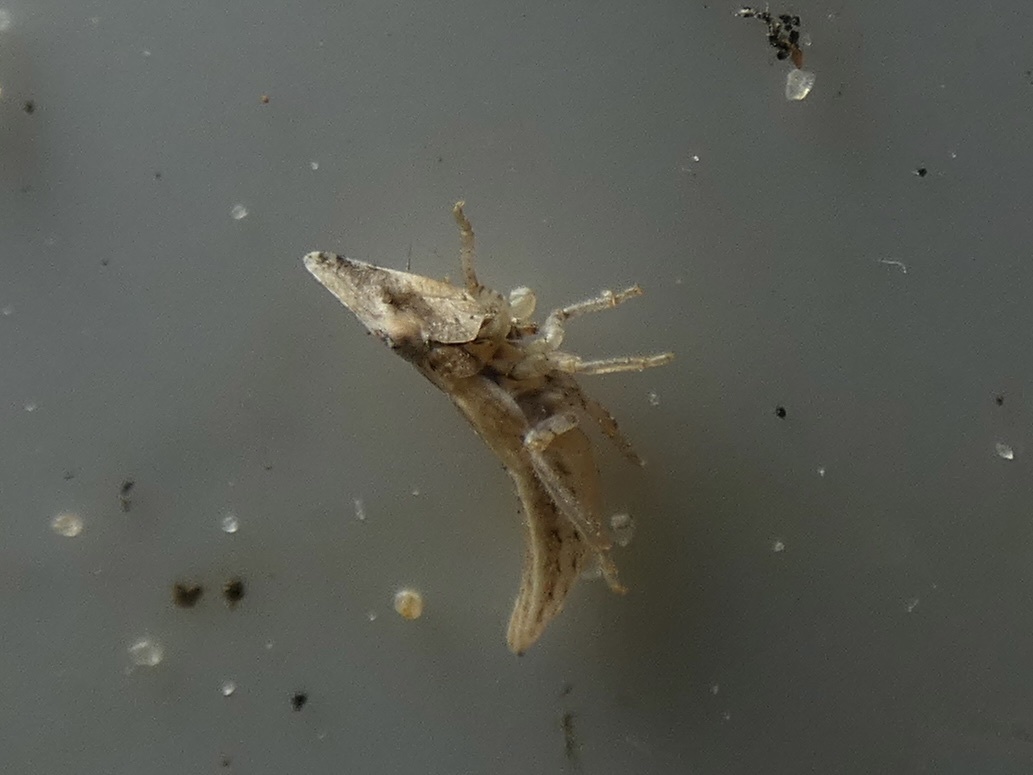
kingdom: Animalia
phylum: Arthropoda
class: Insecta
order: Hemiptera
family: Cicadellidae
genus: Eupelix
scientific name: Eupelix cuspidata
